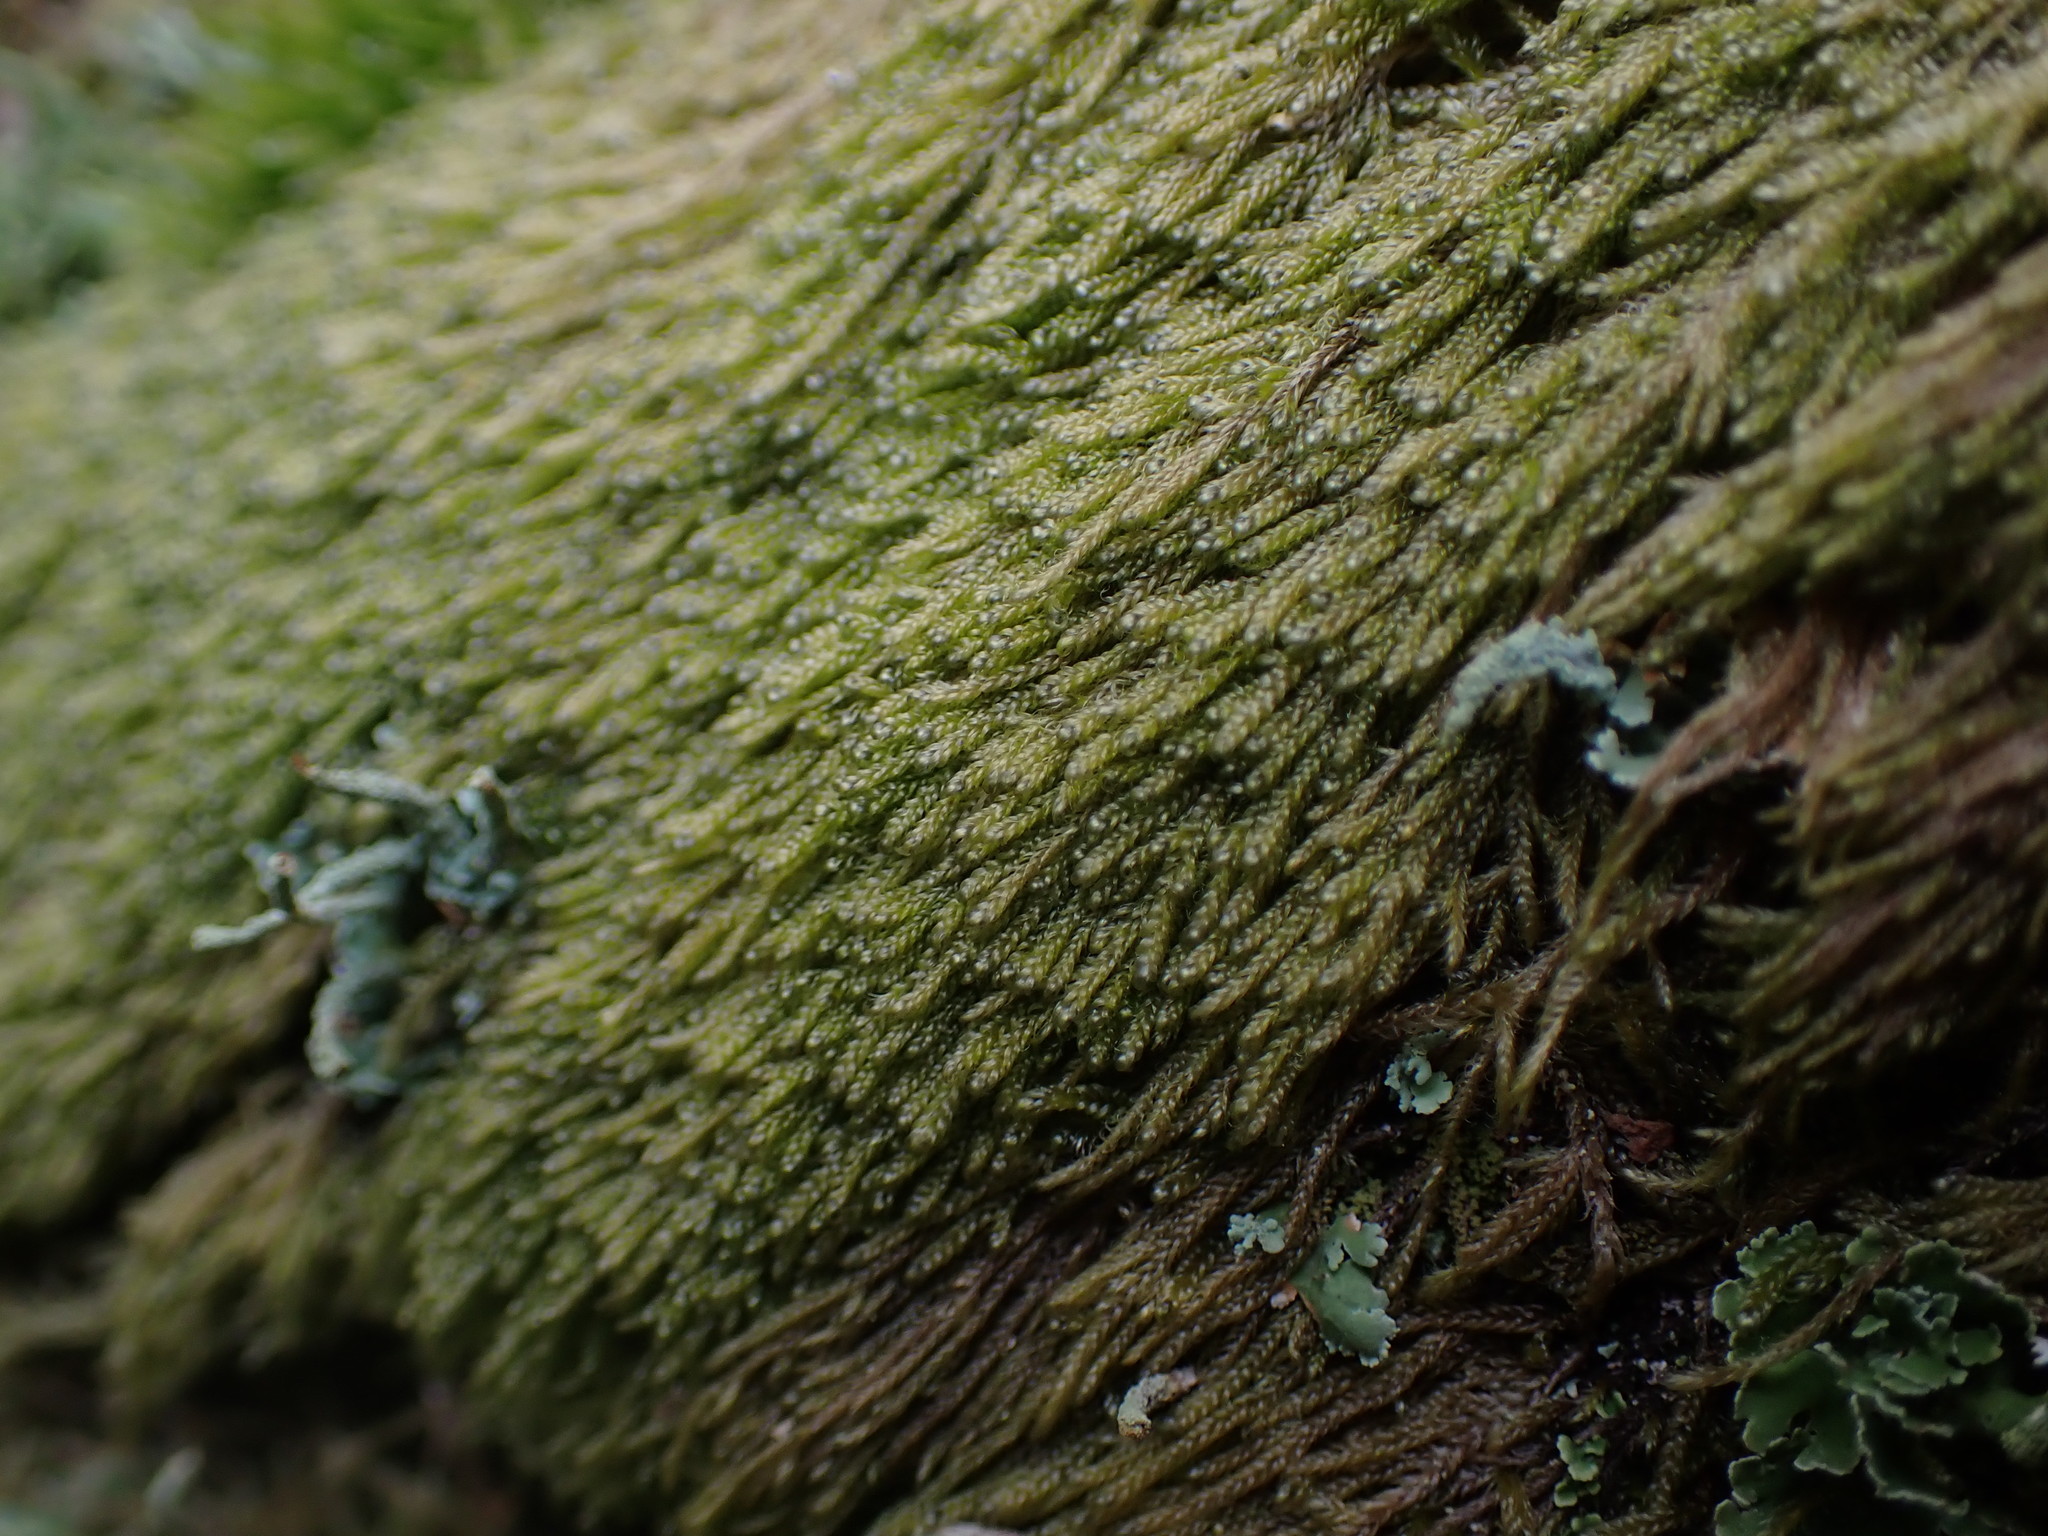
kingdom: Plantae
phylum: Bryophyta
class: Bryopsida
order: Hypnales
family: Pylaisiadelphaceae
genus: Trochophyllohypnum
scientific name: Trochophyllohypnum circinale
